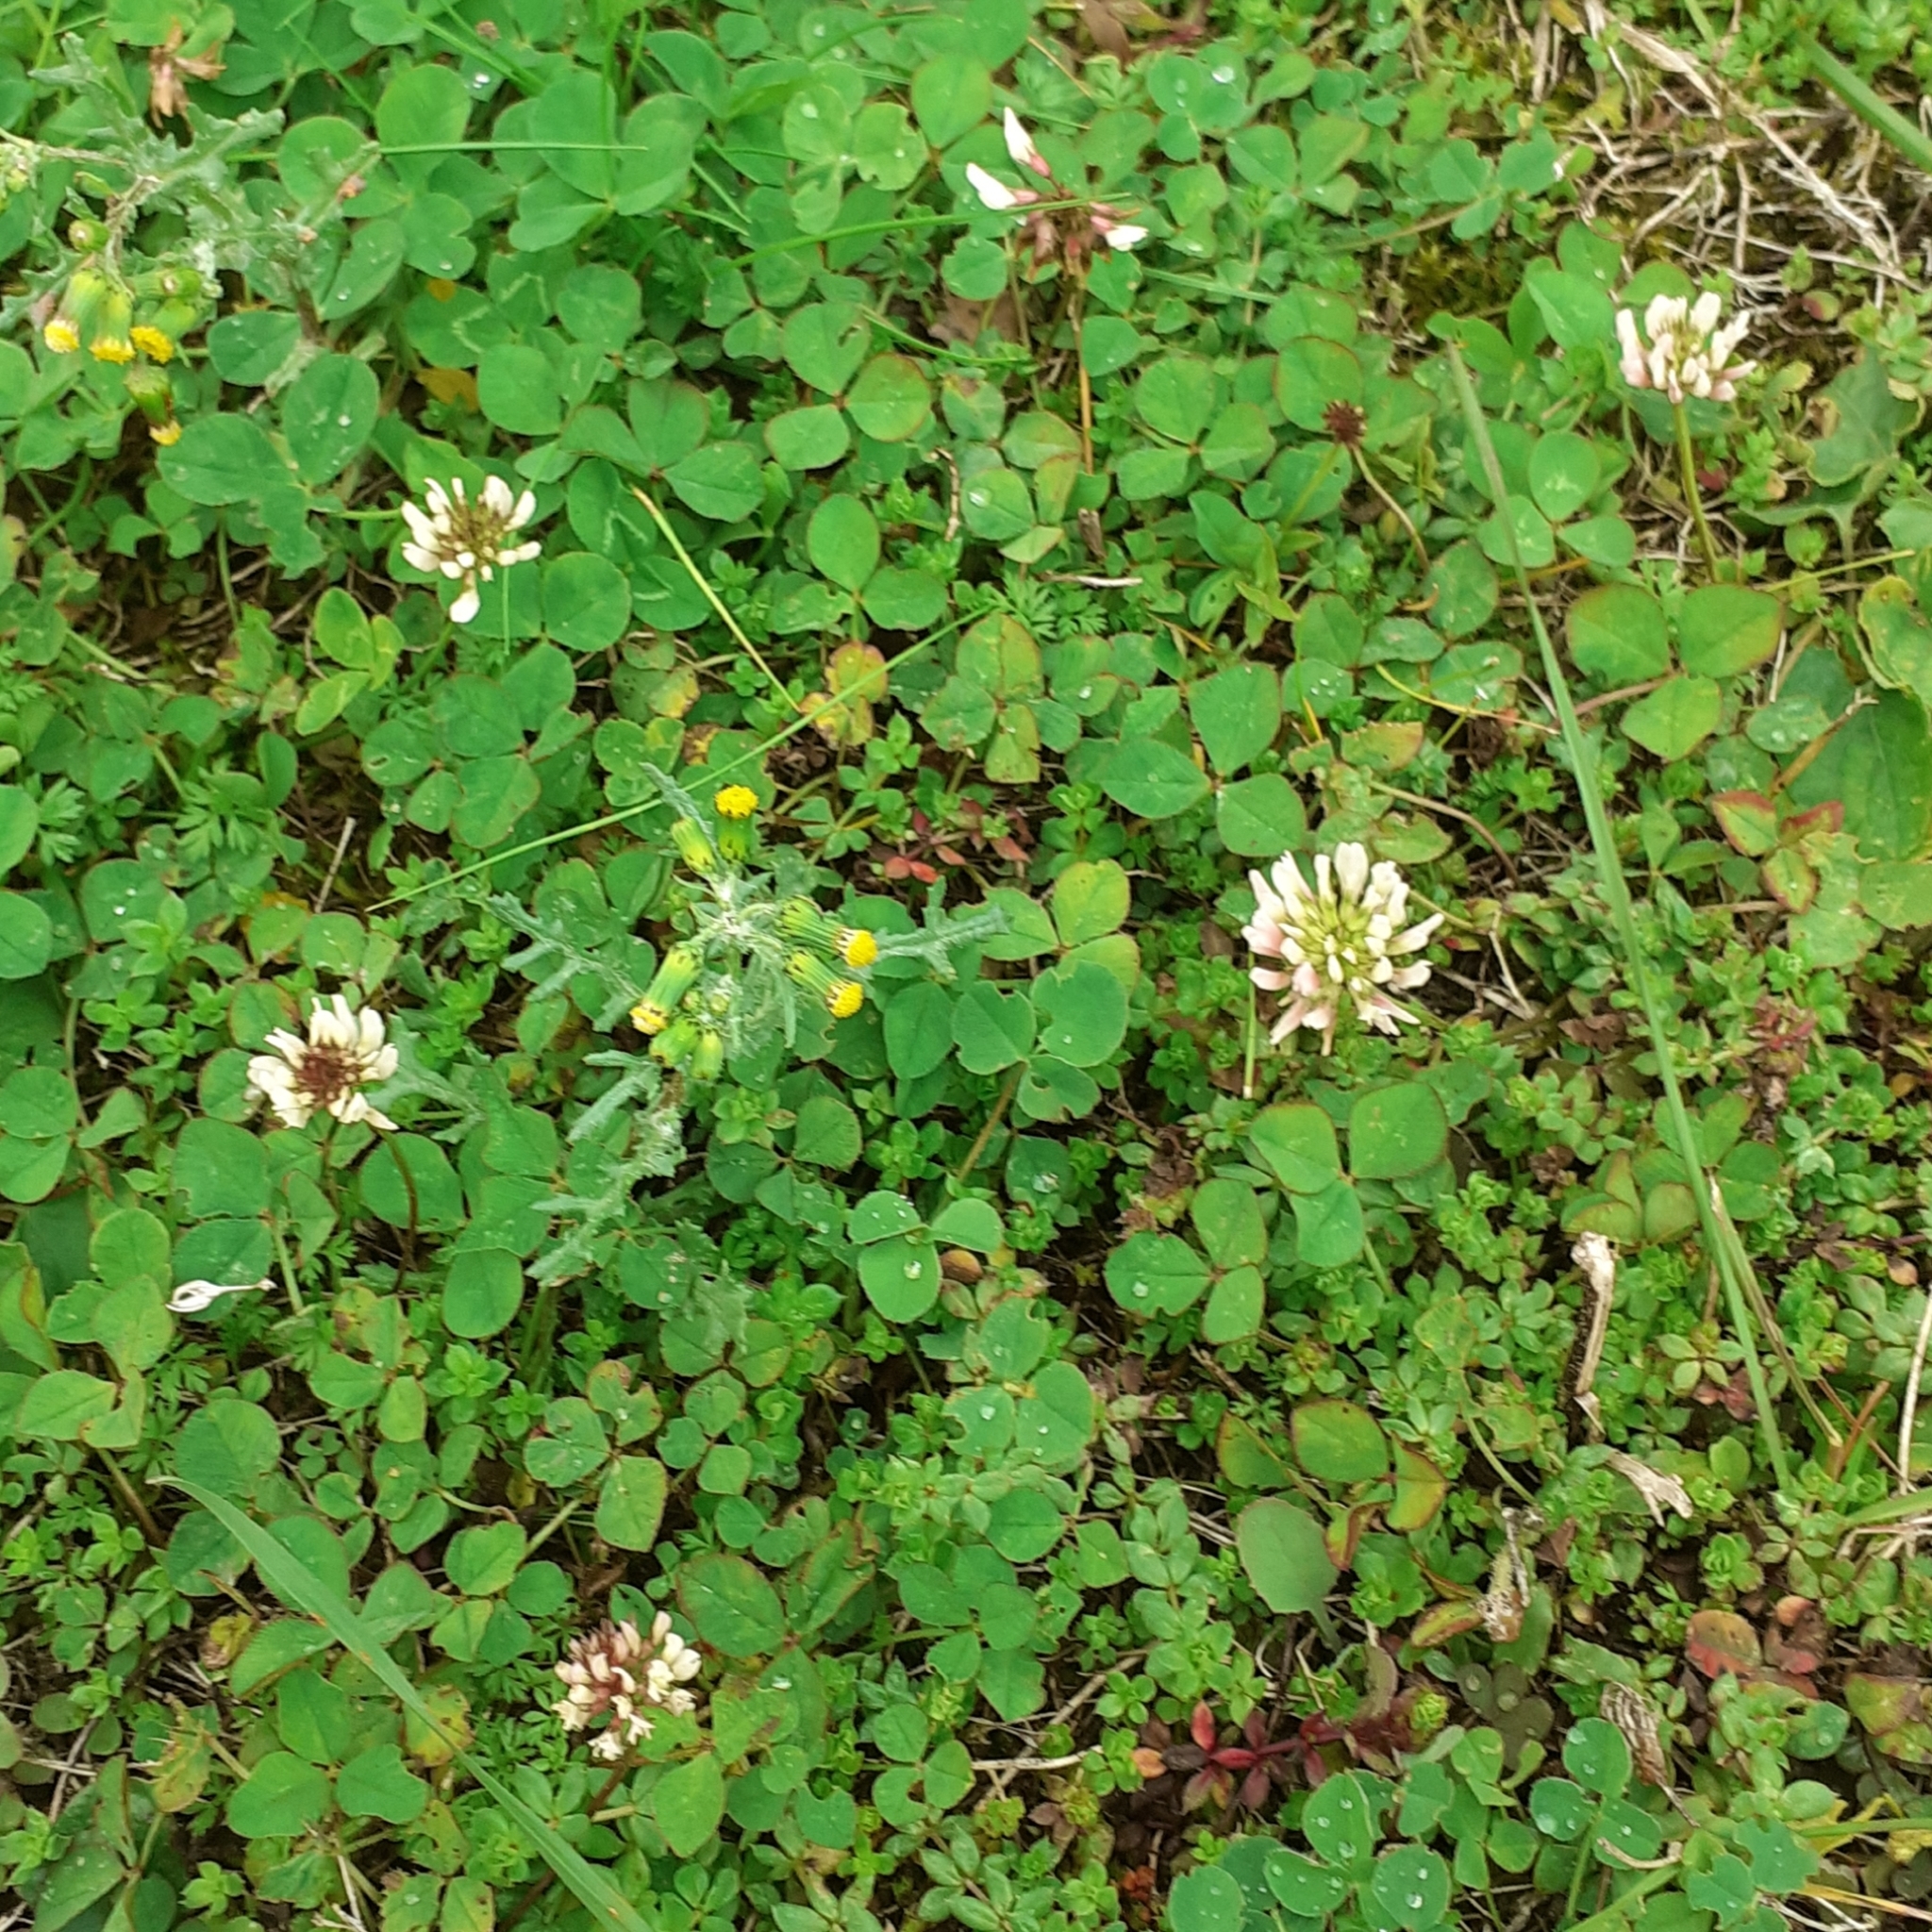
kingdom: Plantae
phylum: Tracheophyta
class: Magnoliopsida
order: Fabales
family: Fabaceae
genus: Trifolium
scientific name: Trifolium repens
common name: White clover
